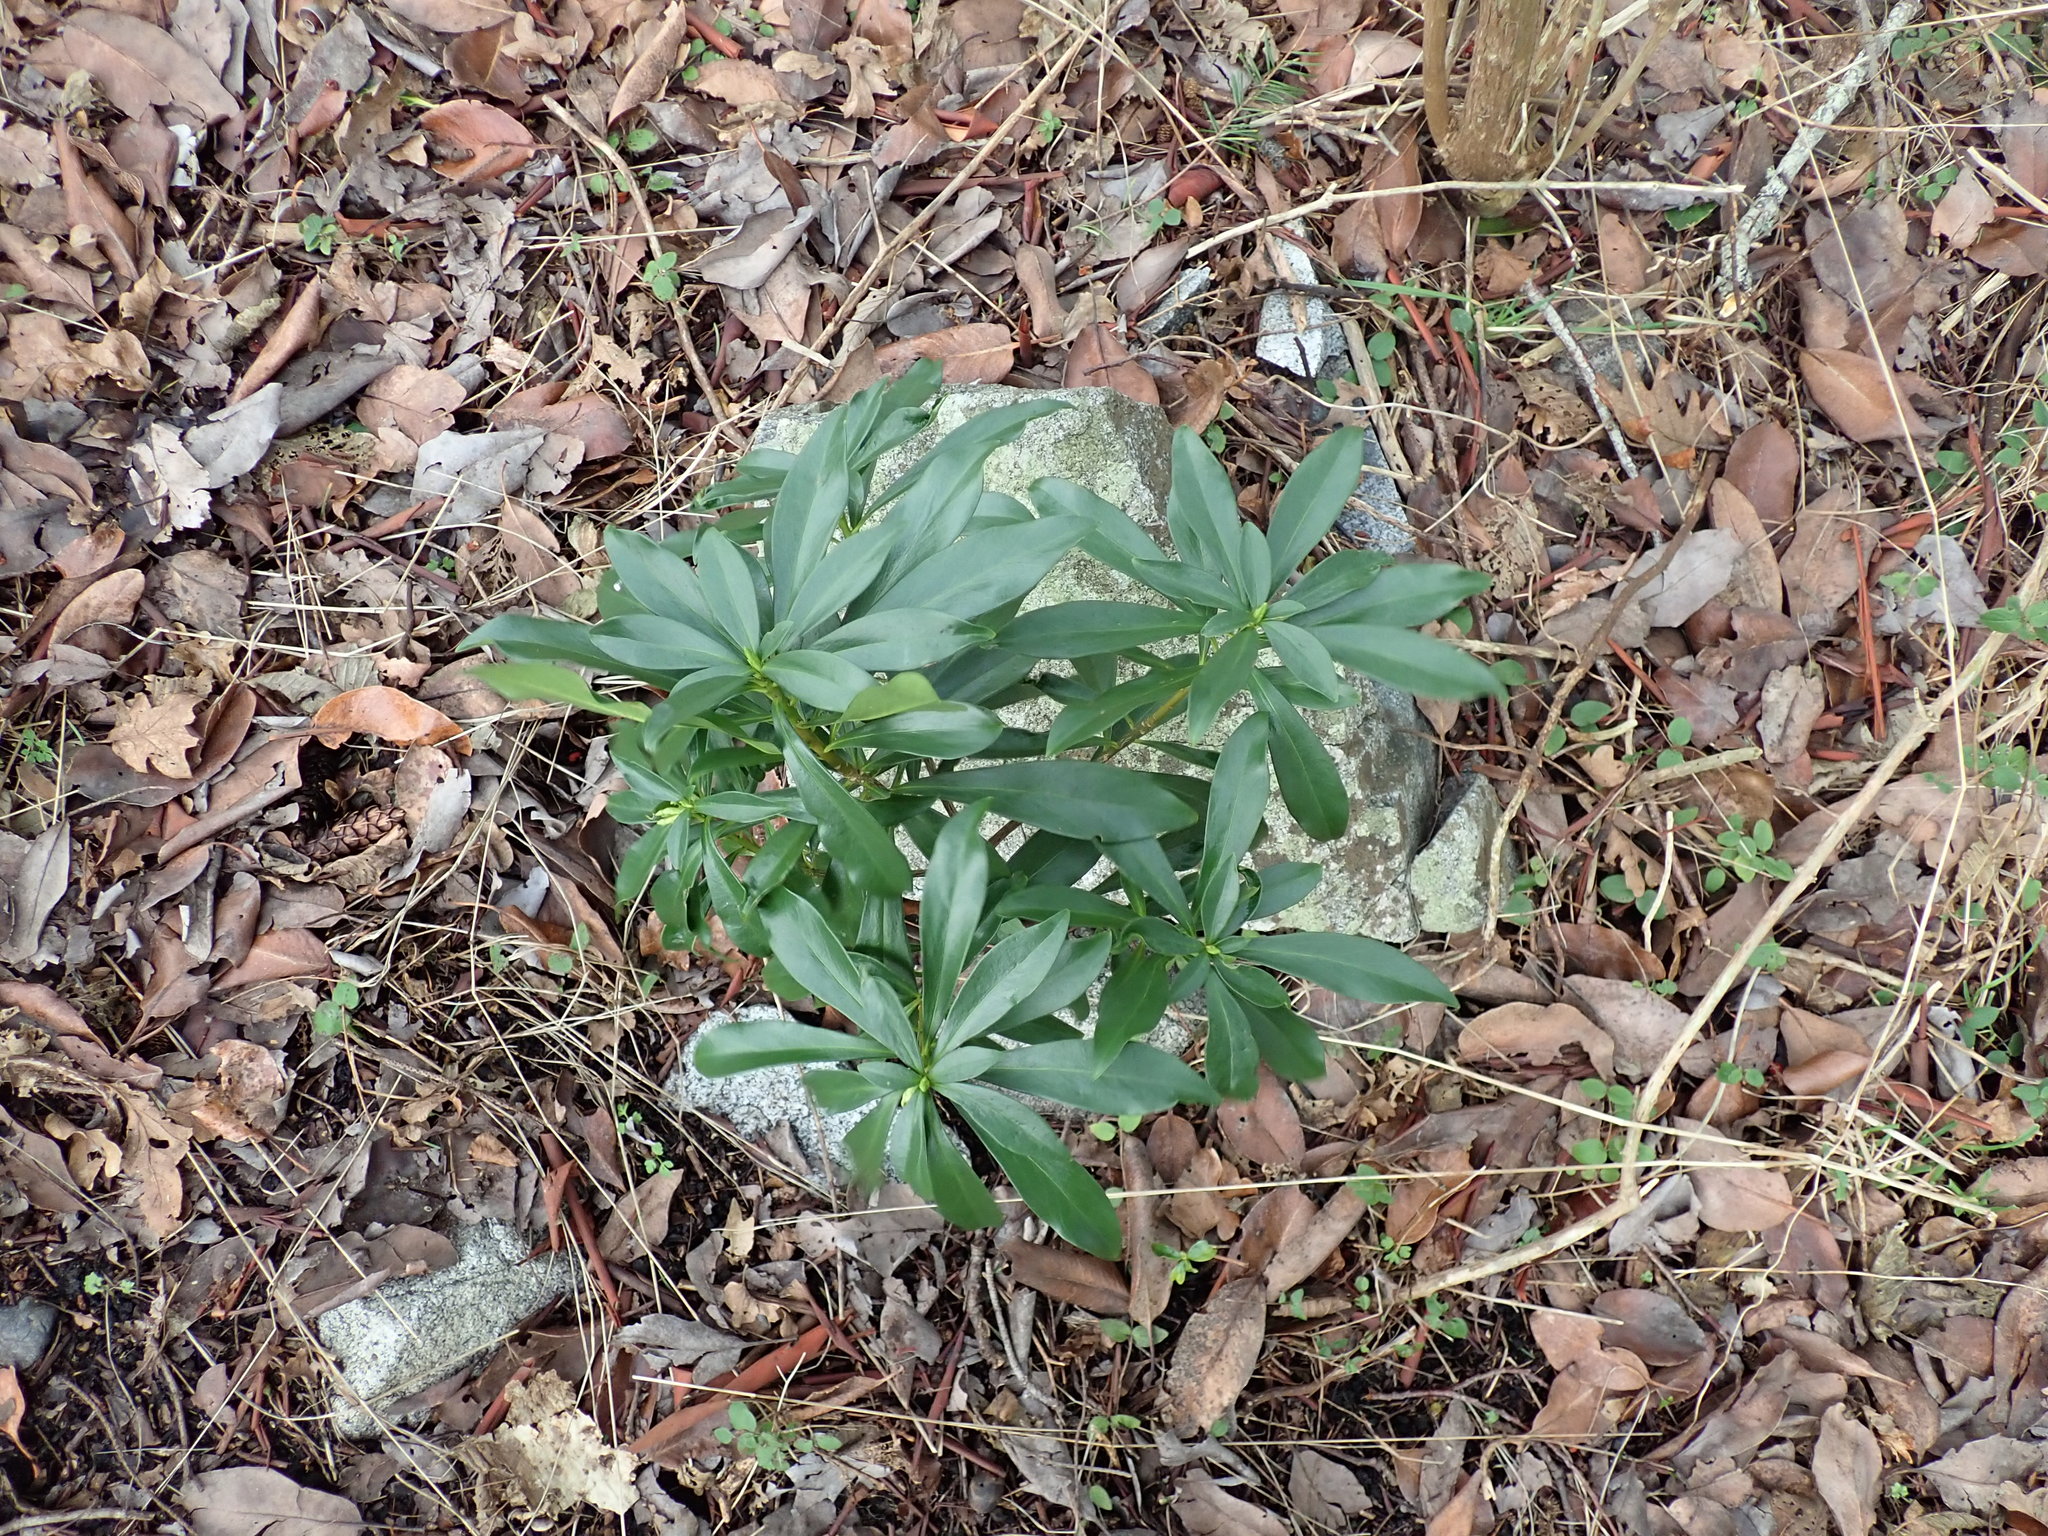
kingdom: Plantae
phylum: Tracheophyta
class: Magnoliopsida
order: Malvales
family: Thymelaeaceae
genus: Daphne
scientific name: Daphne laureola
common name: Spurge-laurel
